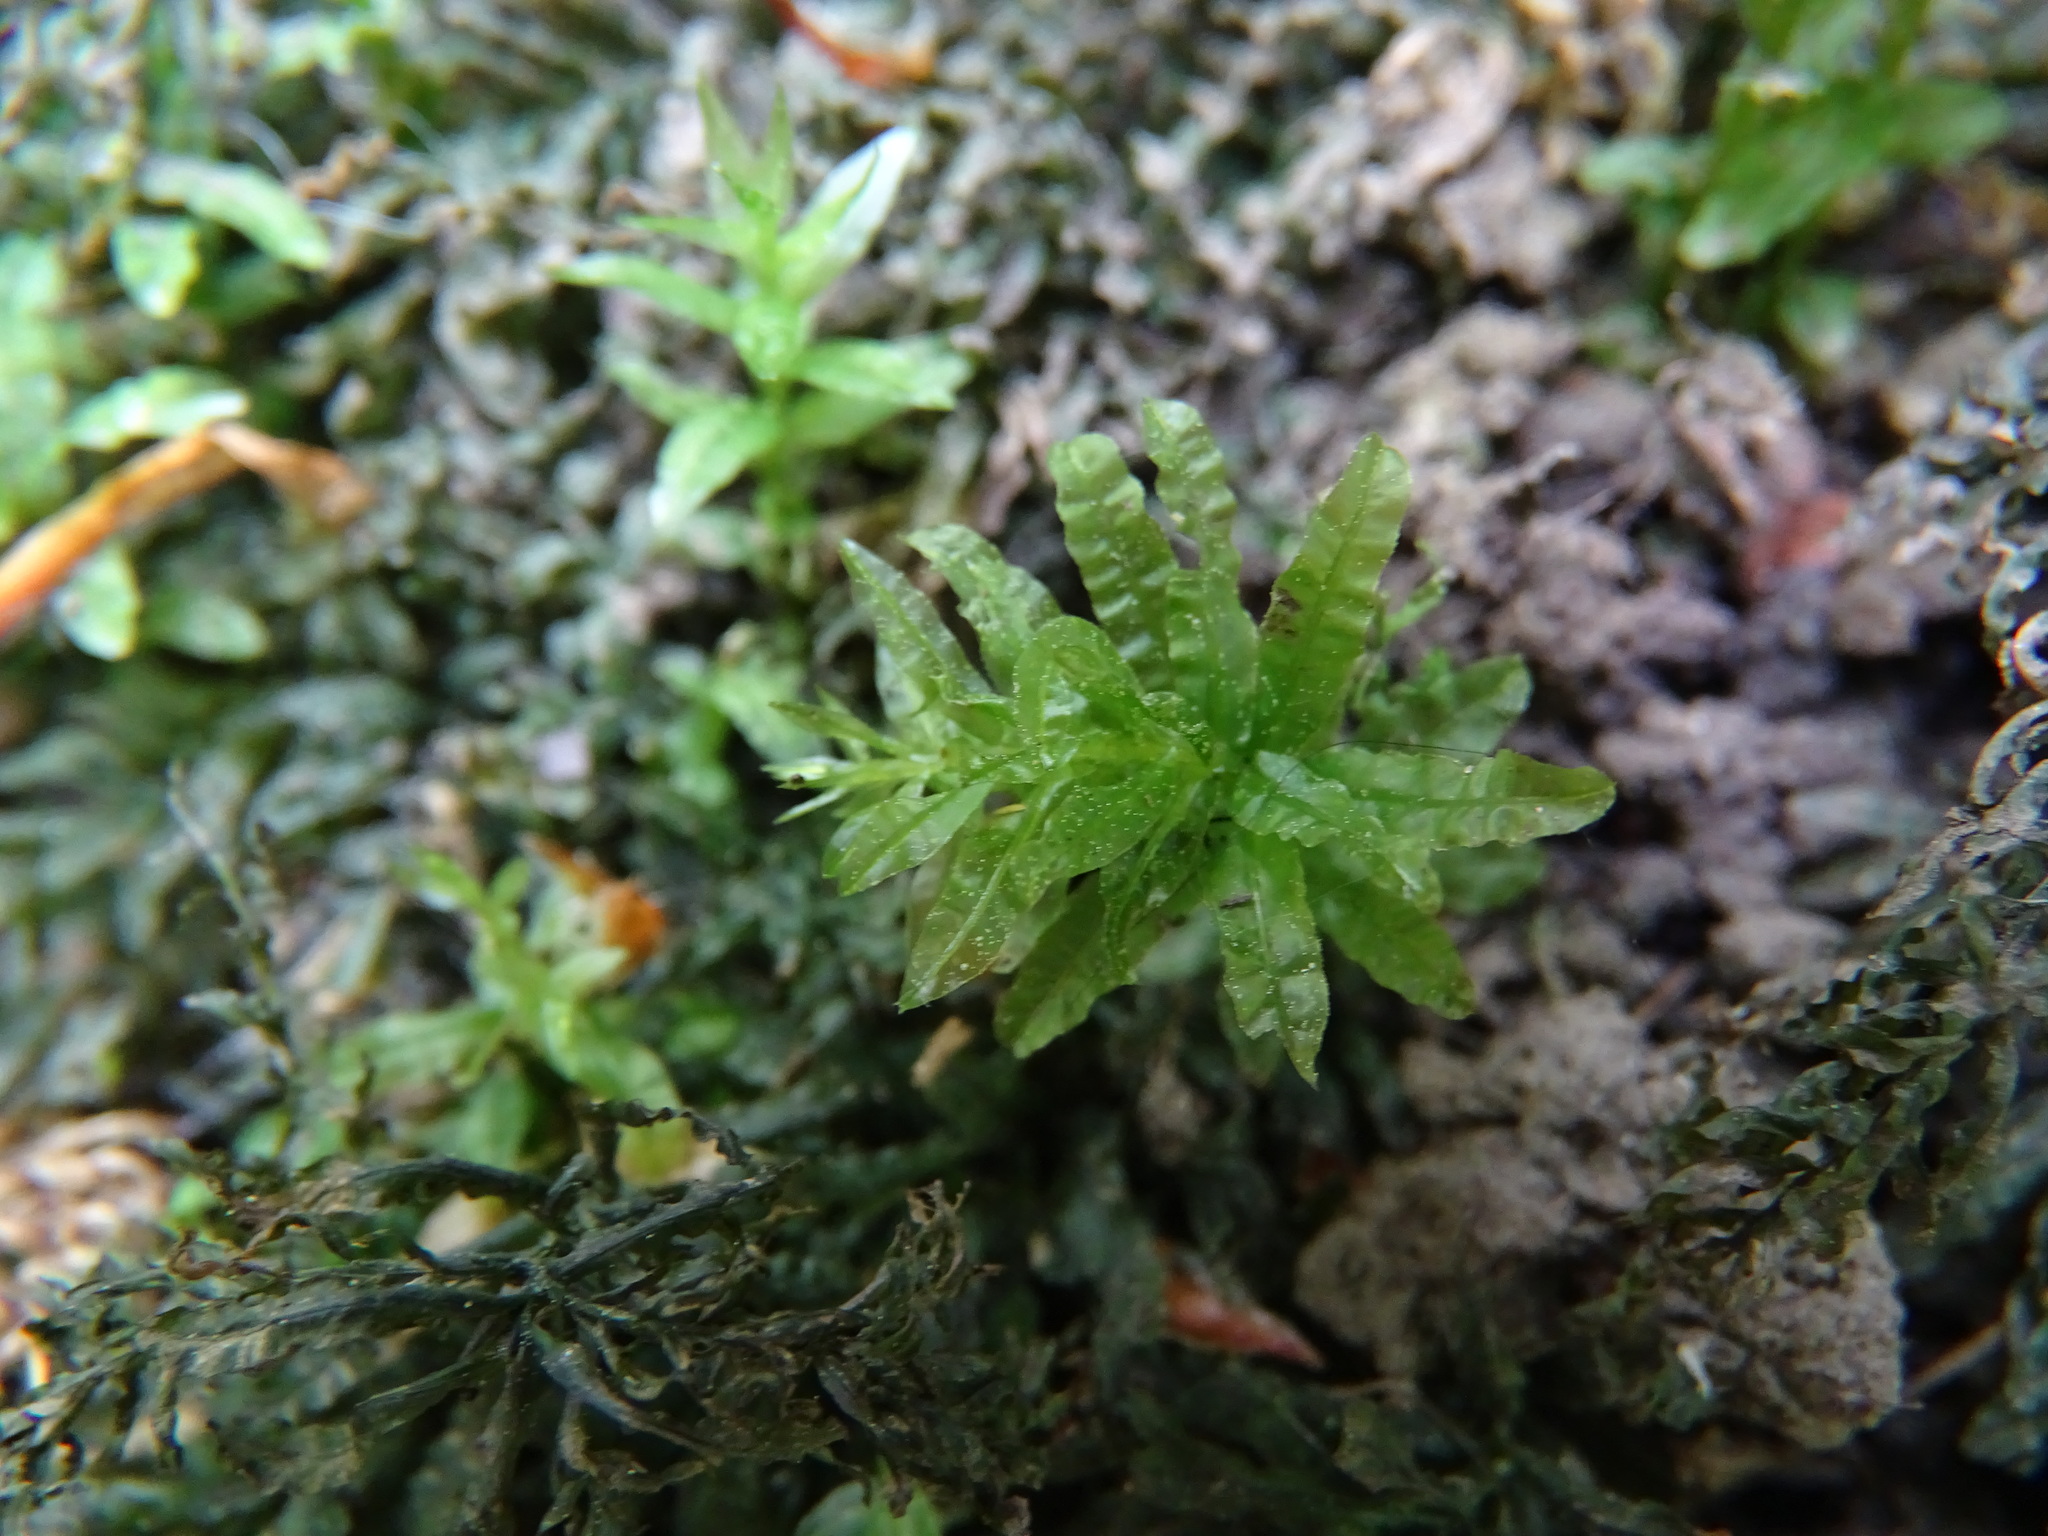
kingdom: Plantae
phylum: Bryophyta
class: Bryopsida
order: Bryales
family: Mniaceae
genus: Plagiomnium
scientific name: Plagiomnium undulatum
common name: Hart's-tongue thyme-moss
